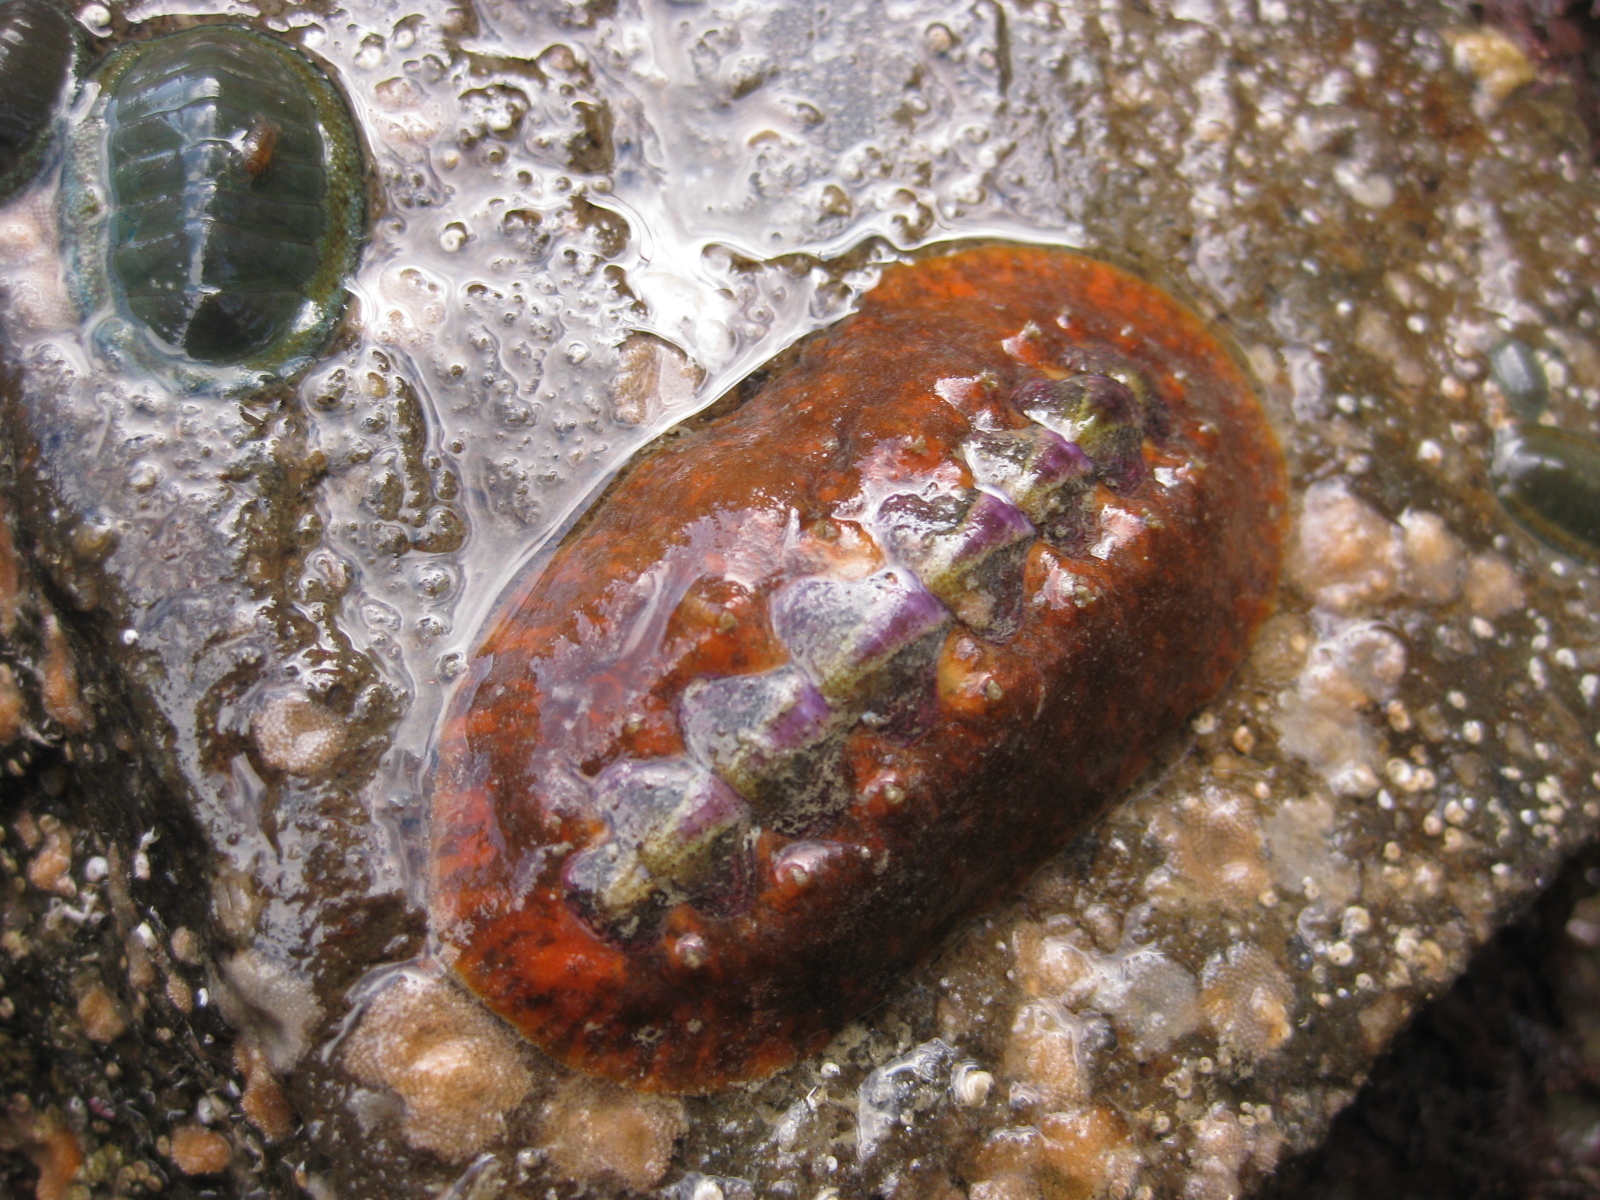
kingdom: Animalia
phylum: Mollusca
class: Polyplacophora
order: Chitonida
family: Acanthochitonidae
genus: Notoplax
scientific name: Notoplax violacea
